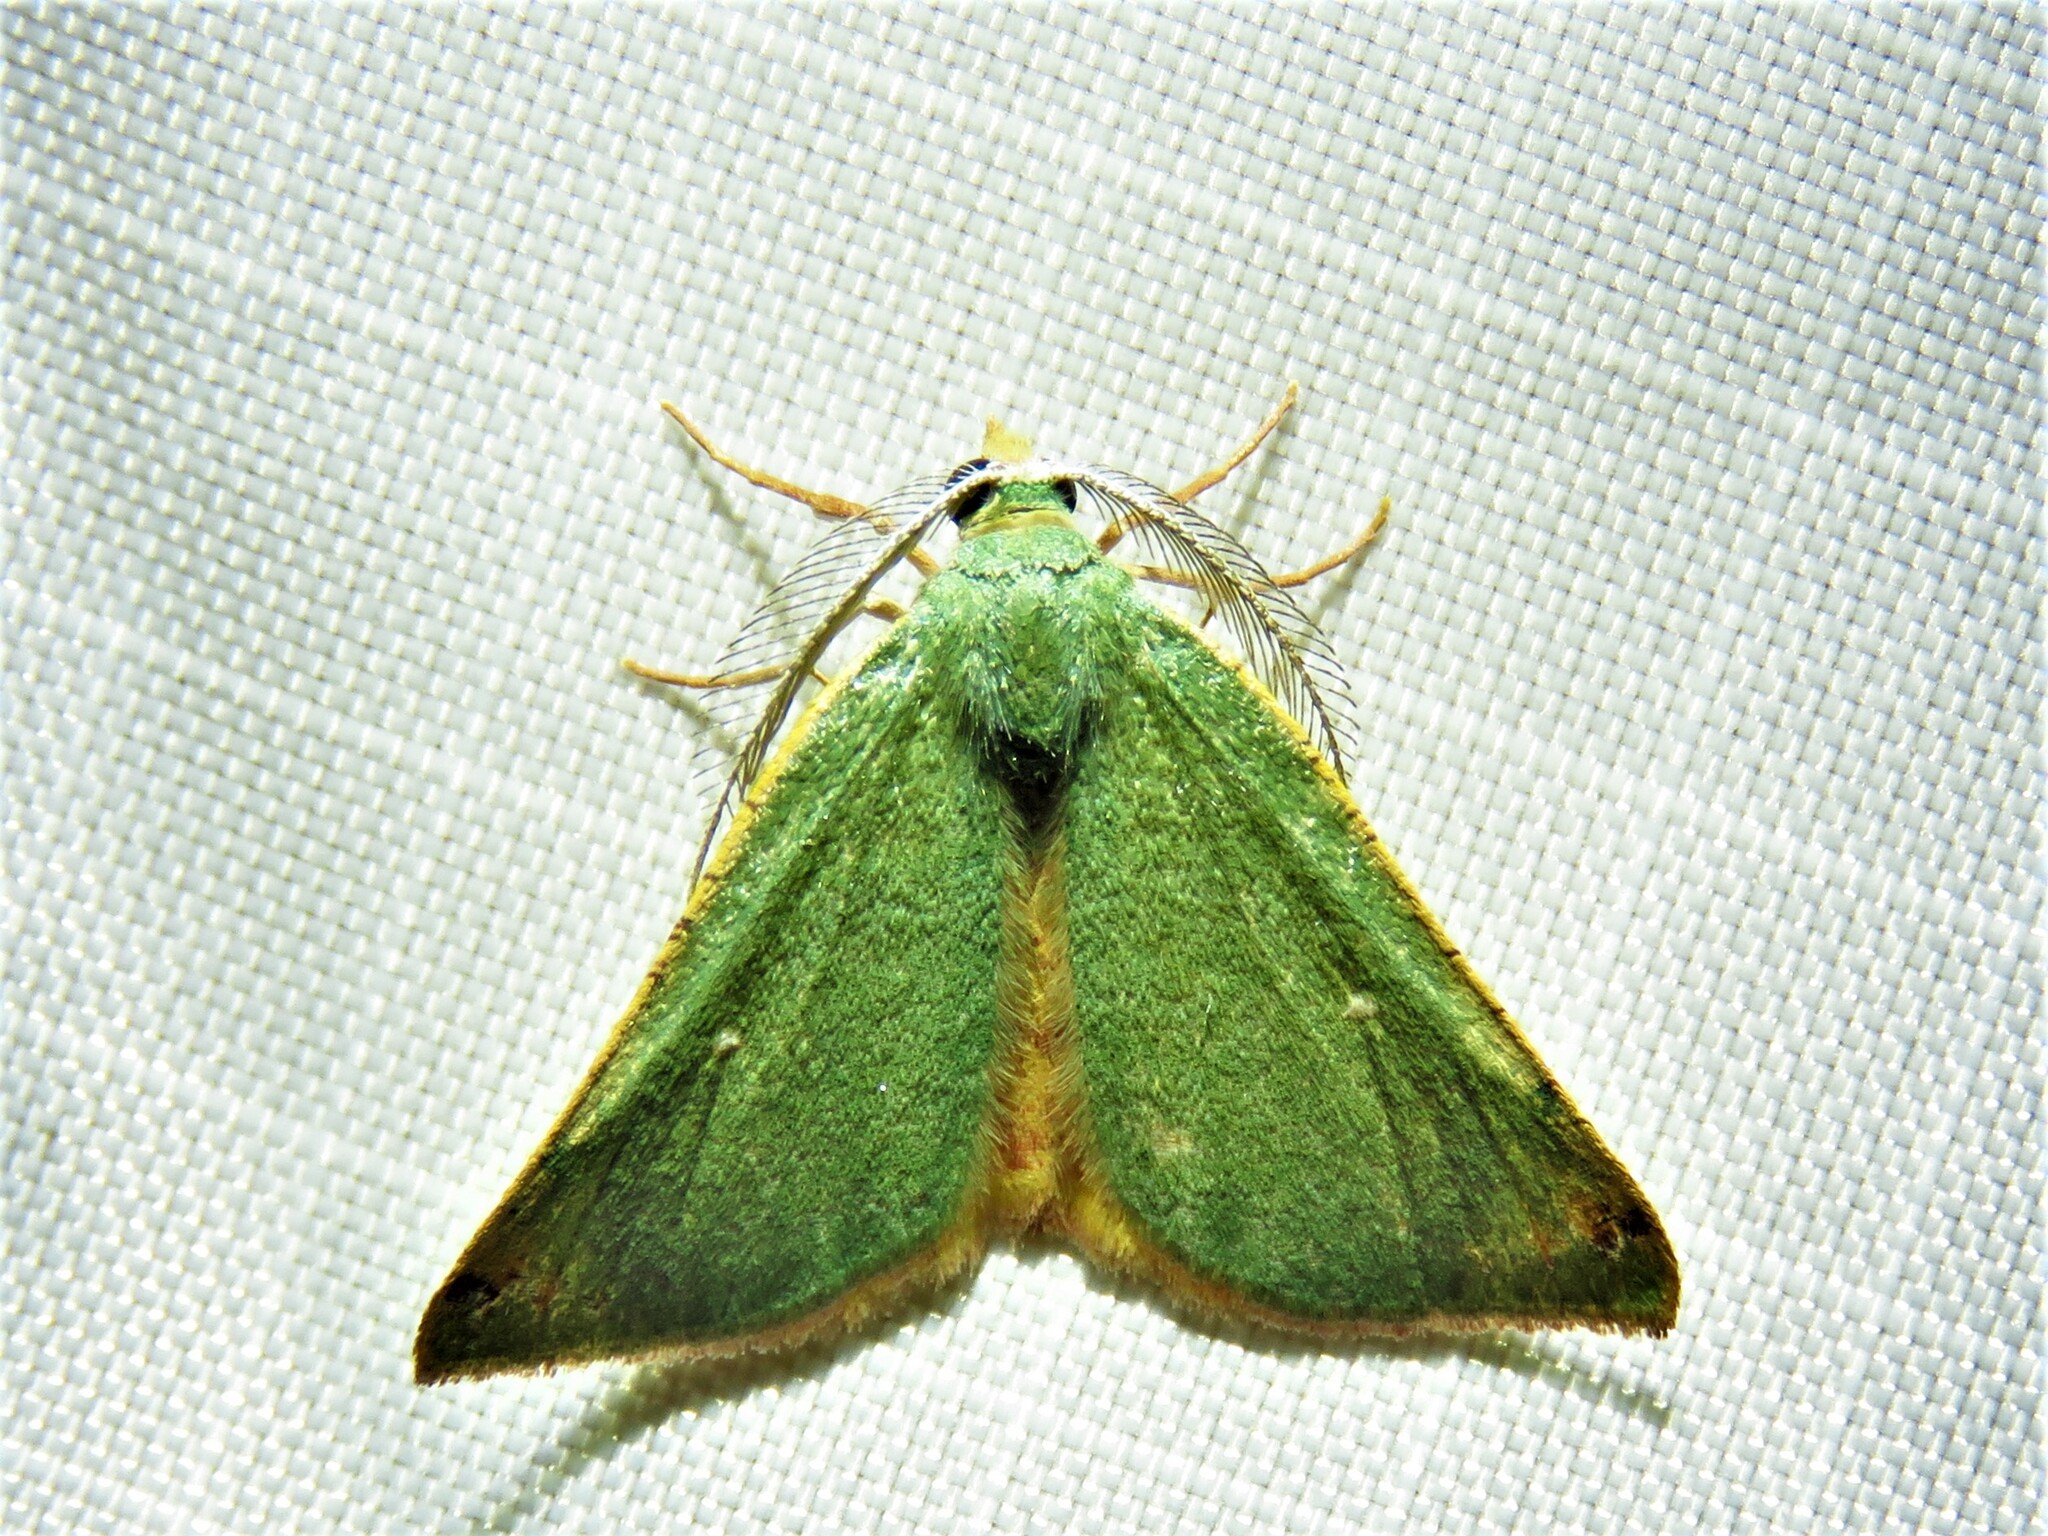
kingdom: Animalia
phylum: Arthropoda
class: Insecta
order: Lepidoptera
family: Geometridae
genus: Chloraspilates
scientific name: Chloraspilates bicoloraria
